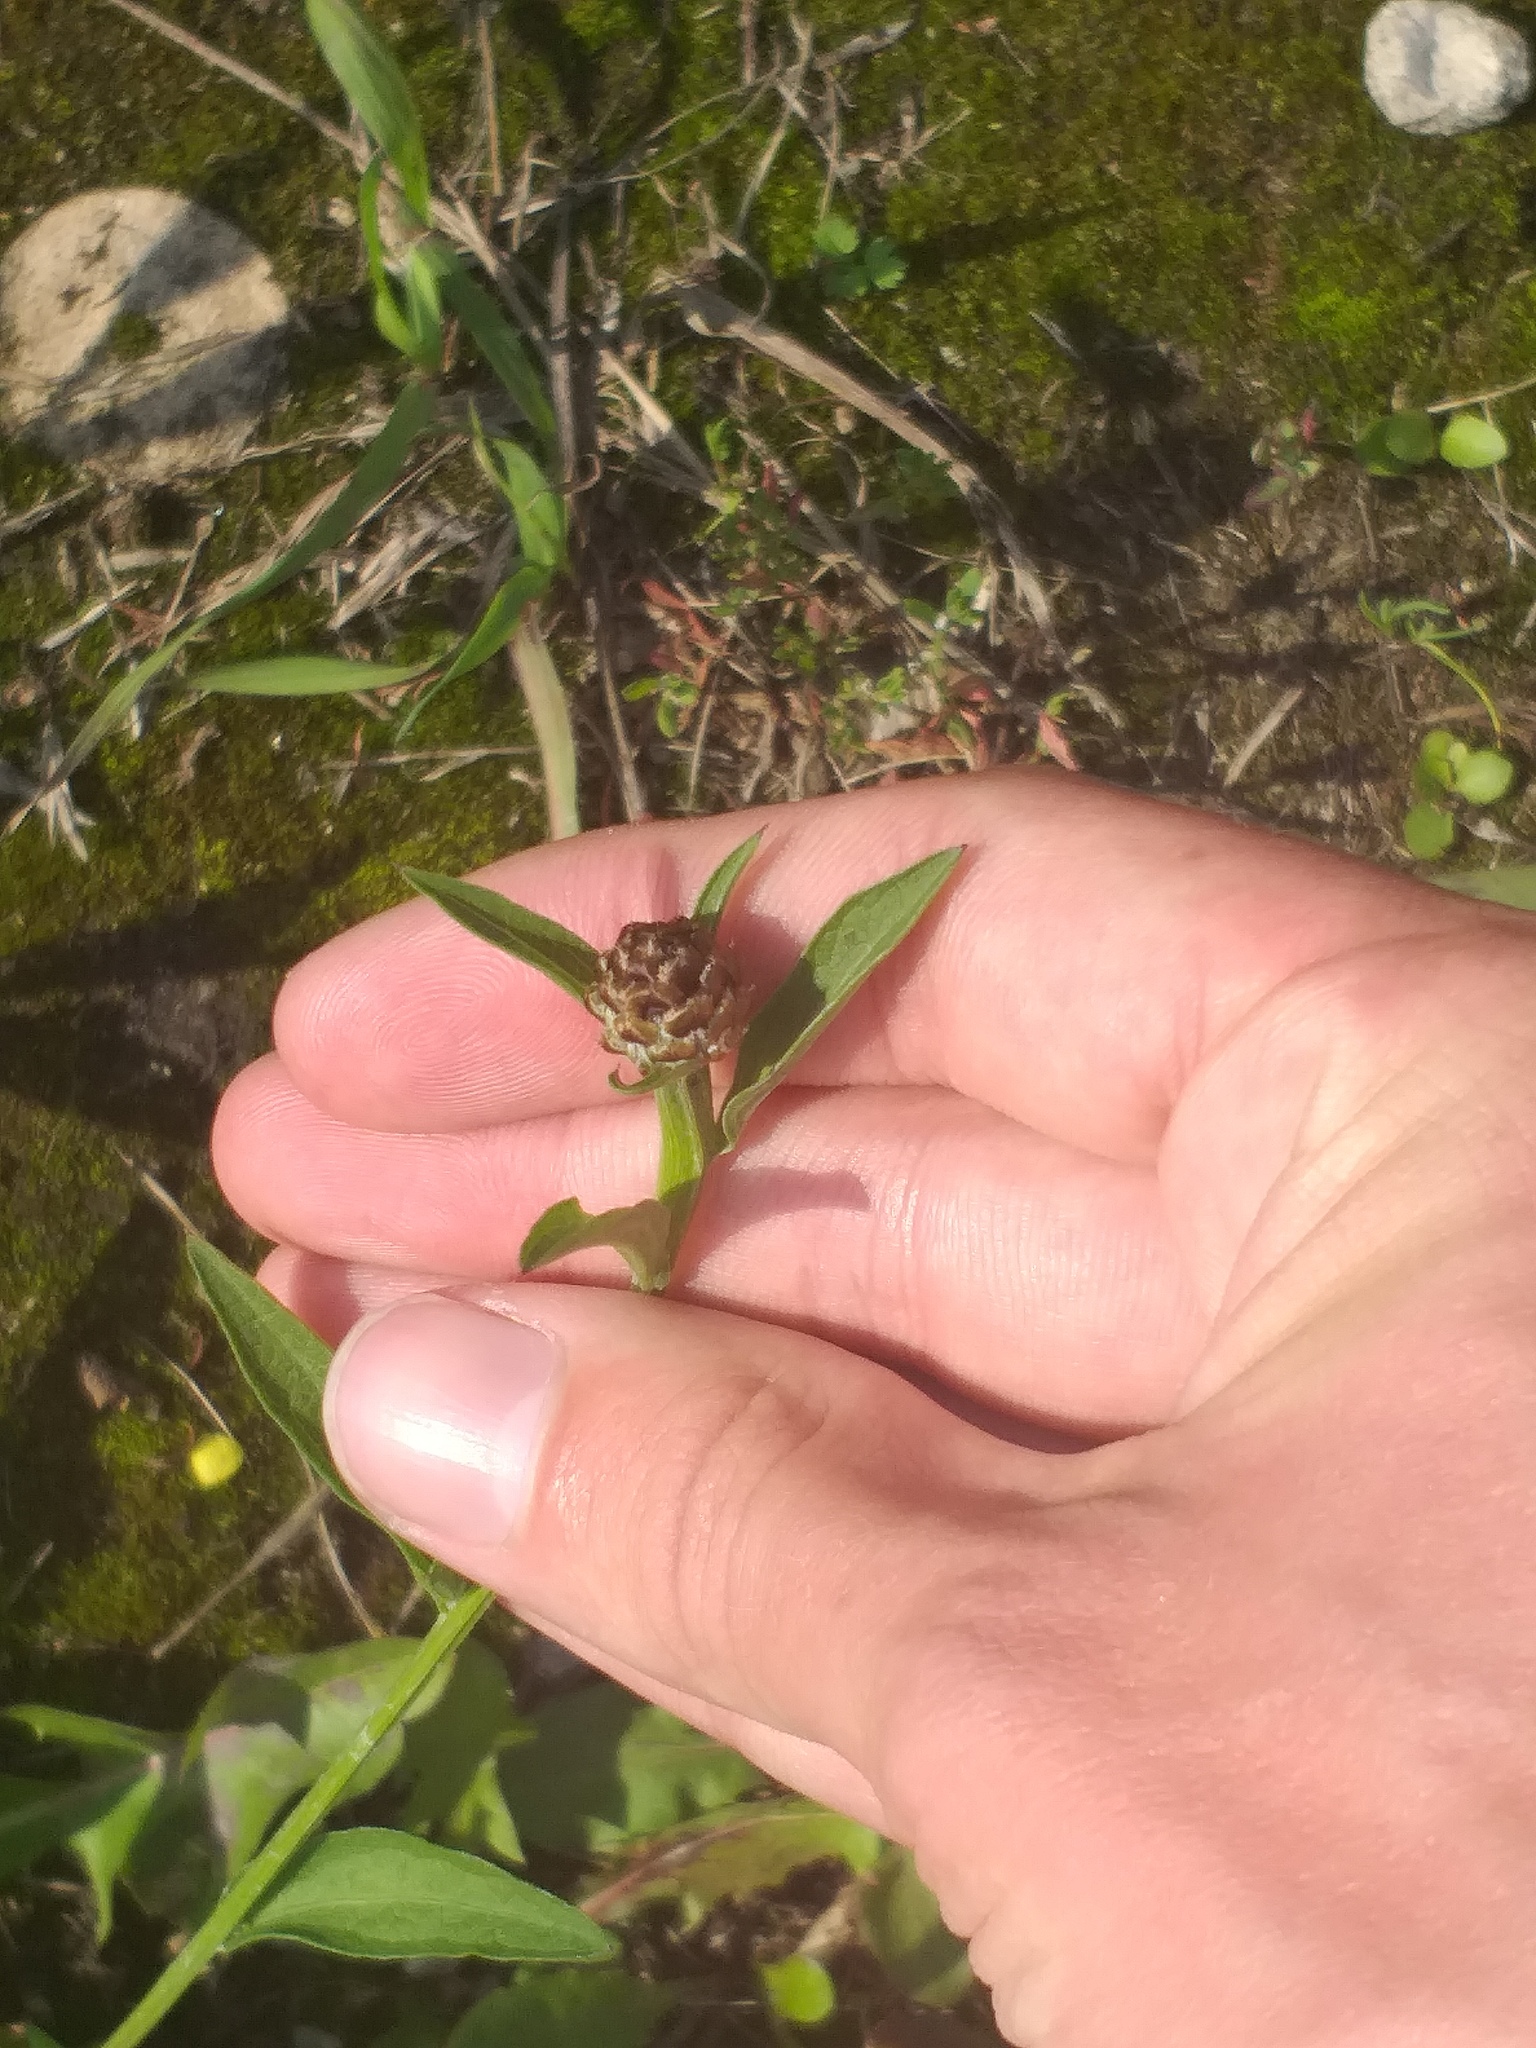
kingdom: Plantae
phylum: Tracheophyta
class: Magnoliopsida
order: Asterales
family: Asteraceae
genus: Centaurea
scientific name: Centaurea jacea
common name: Brown knapweed
